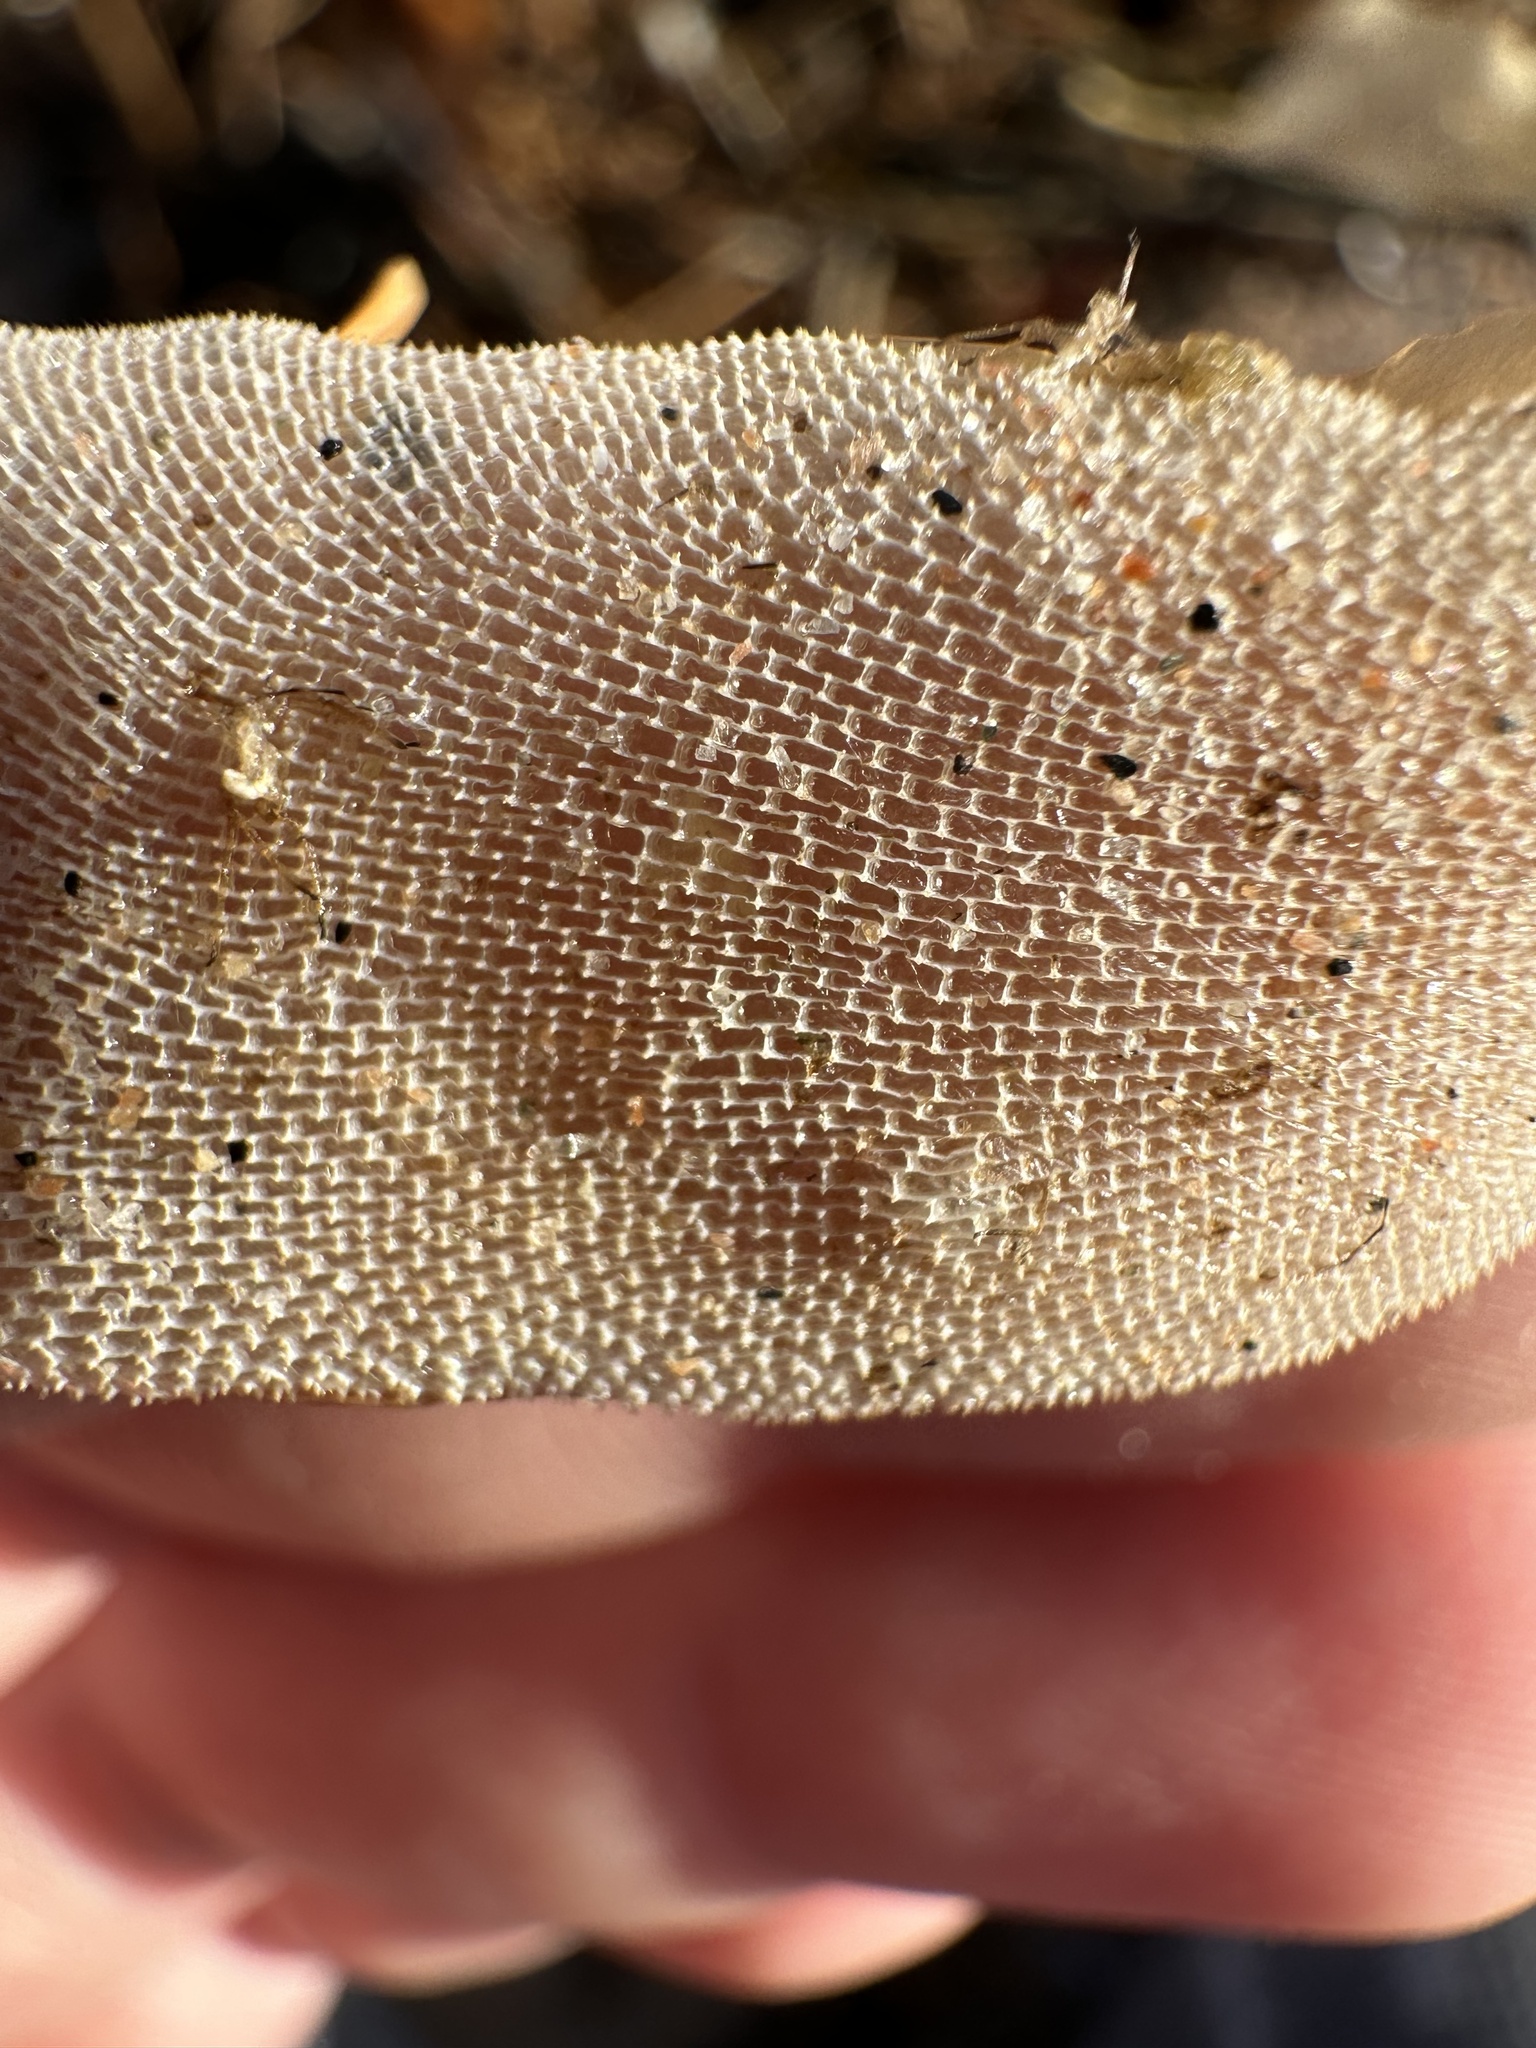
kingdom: Animalia
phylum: Bryozoa
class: Gymnolaemata
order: Cheilostomatida
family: Membraniporidae
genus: Membranipora
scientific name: Membranipora membranacea
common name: Sea mat
